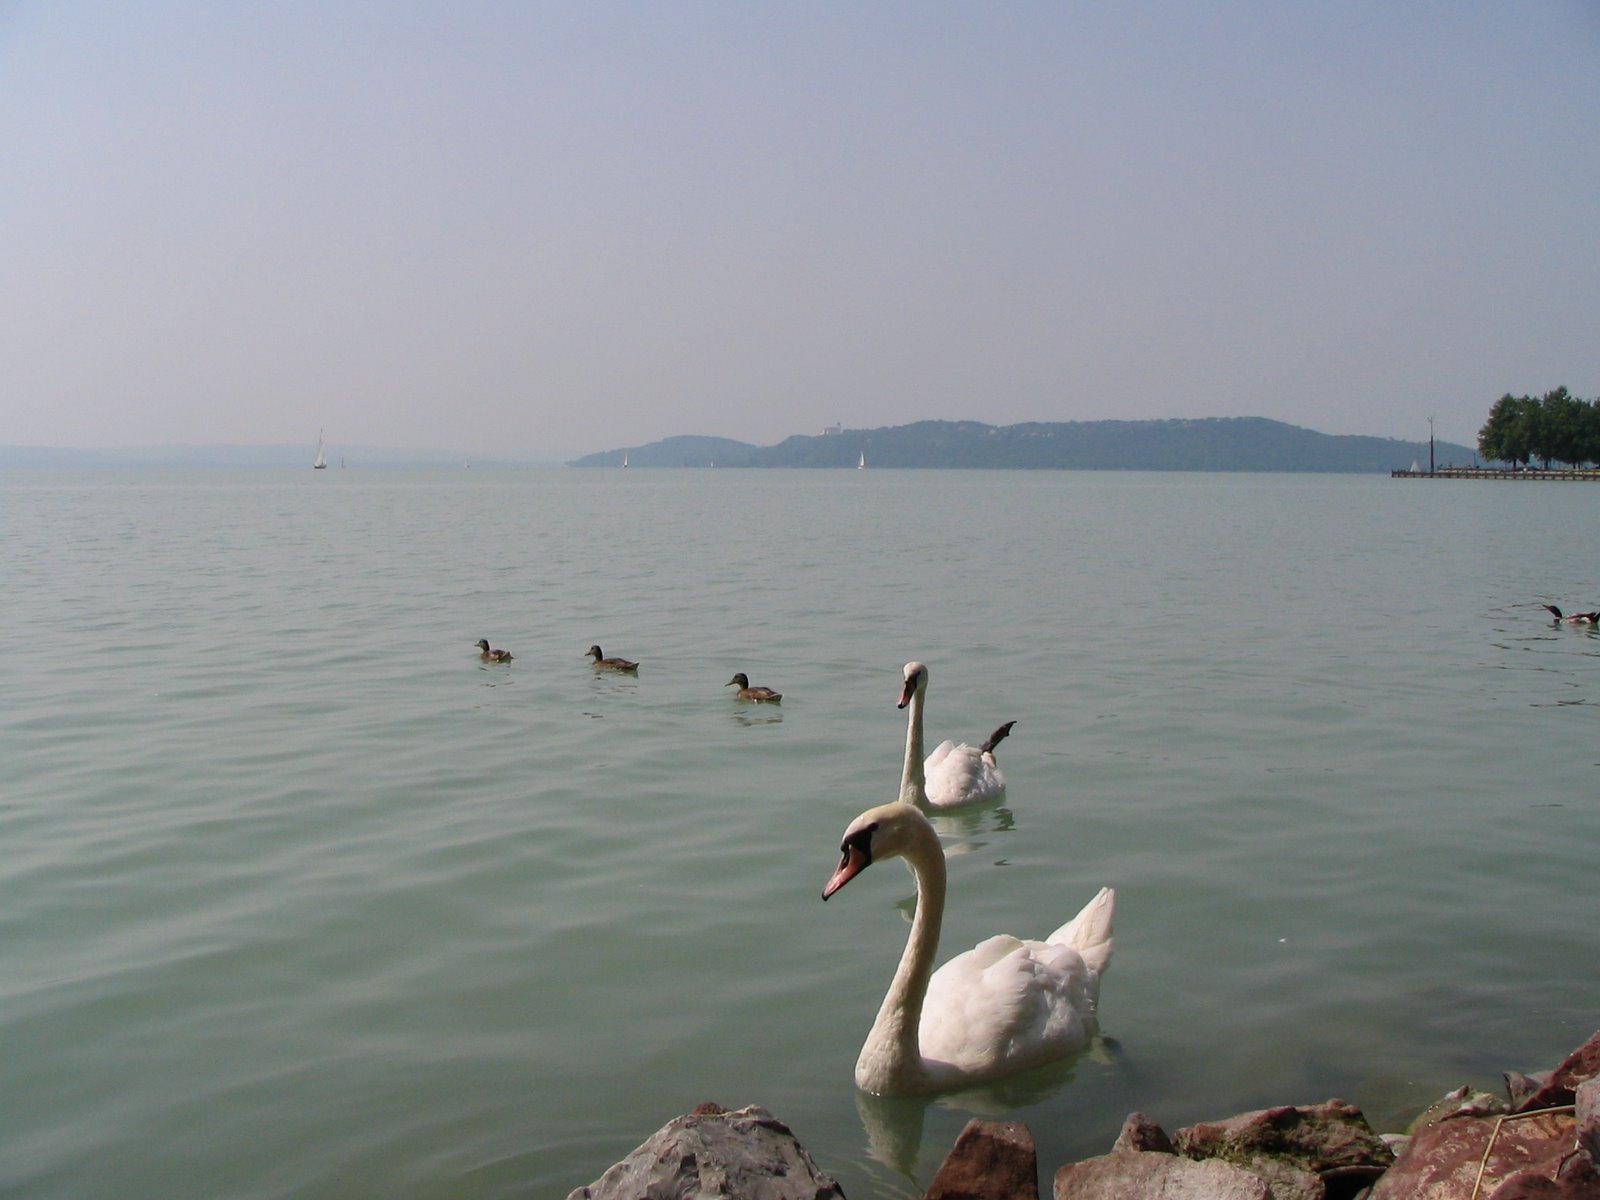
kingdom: Animalia
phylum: Chordata
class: Aves
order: Anseriformes
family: Anatidae
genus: Cygnus
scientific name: Cygnus olor
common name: Mute swan
